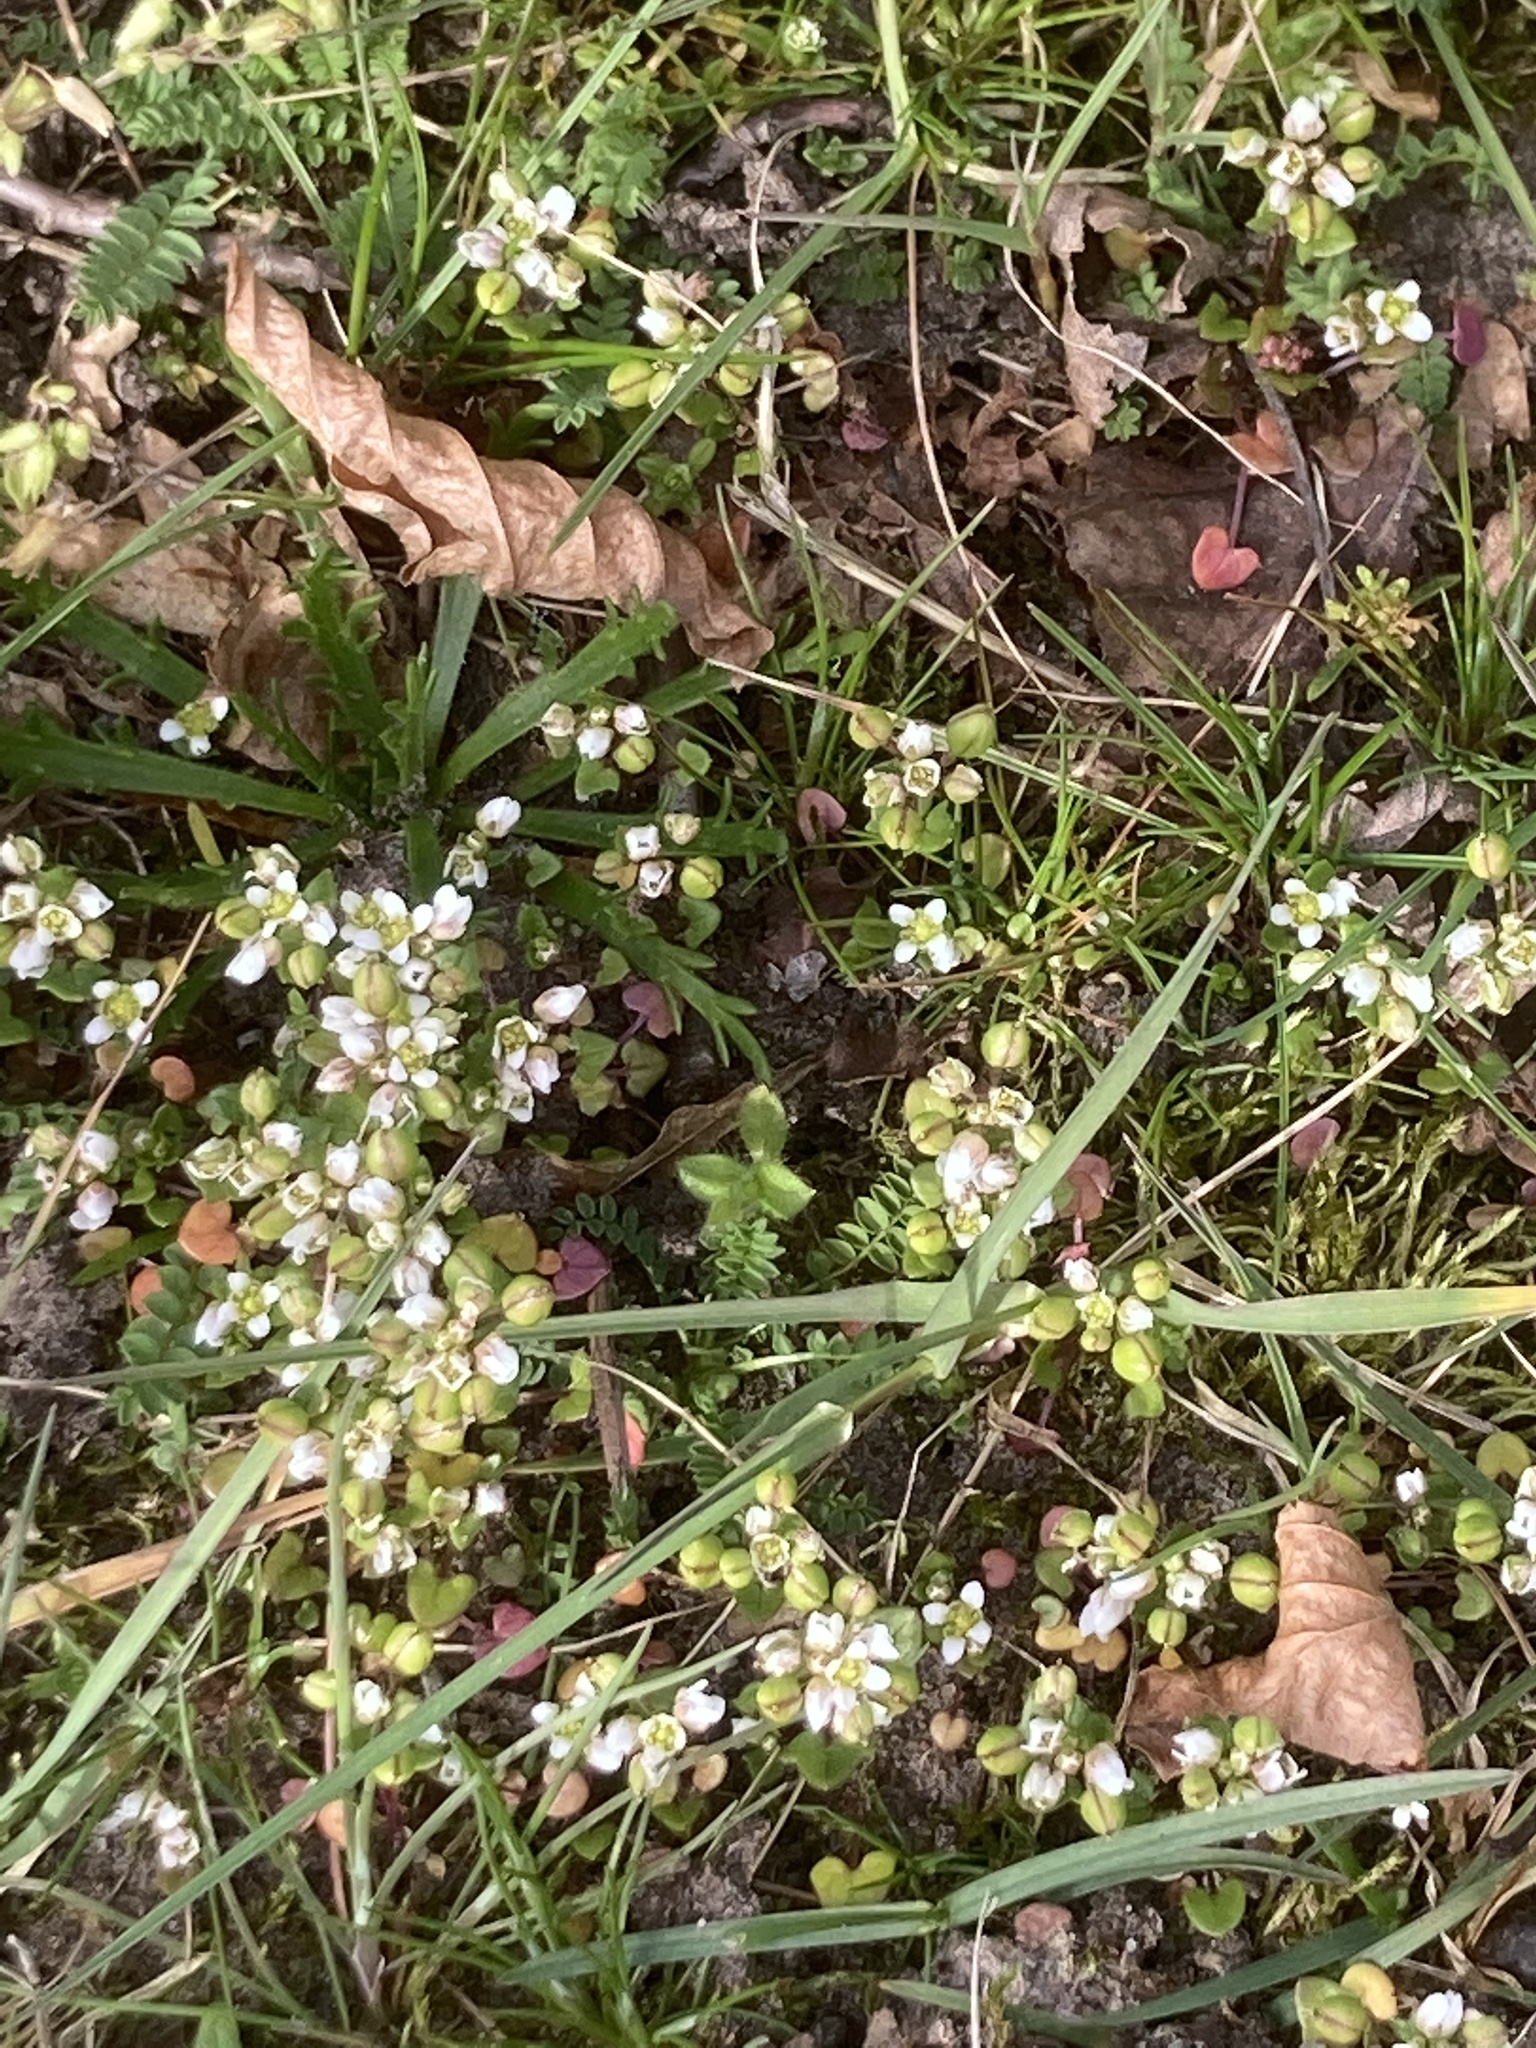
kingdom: Plantae
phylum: Tracheophyta
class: Magnoliopsida
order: Brassicales
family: Brassicaceae
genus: Cochlearia
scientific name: Cochlearia danica
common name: Early scurvygrass
